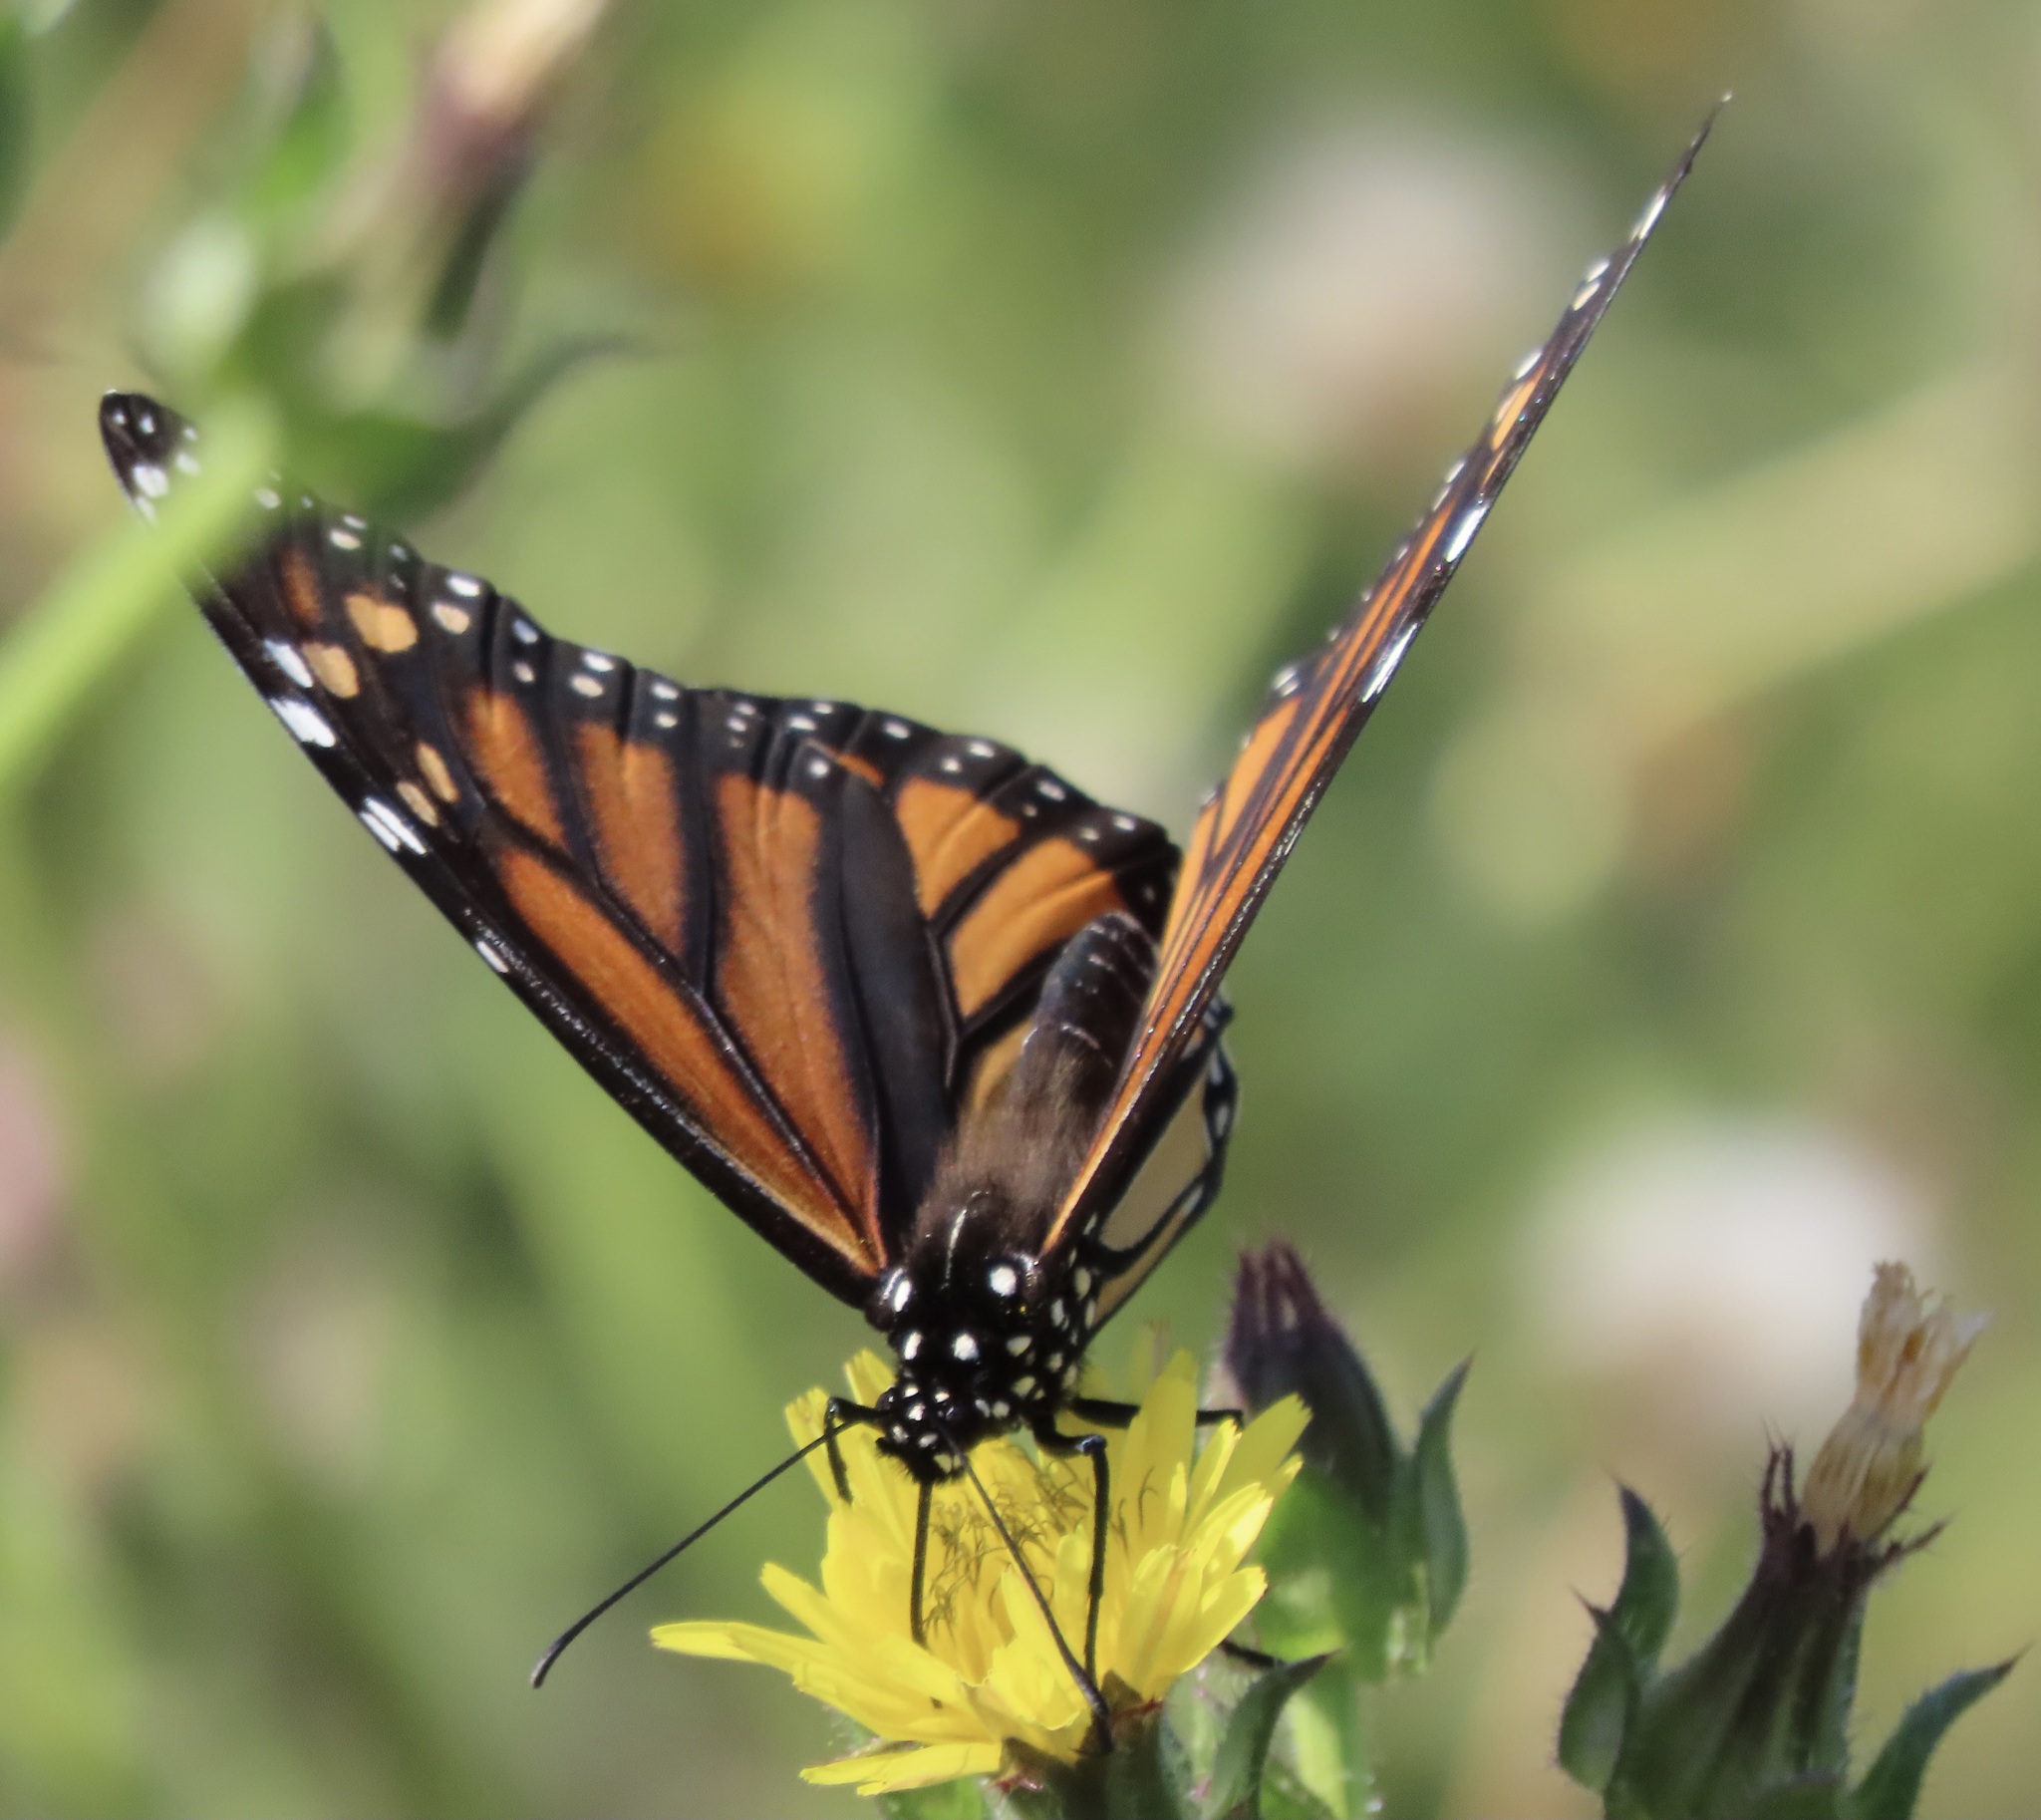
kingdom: Animalia
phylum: Arthropoda
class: Insecta
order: Lepidoptera
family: Nymphalidae
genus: Danaus
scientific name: Danaus plexippus
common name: Monarch
